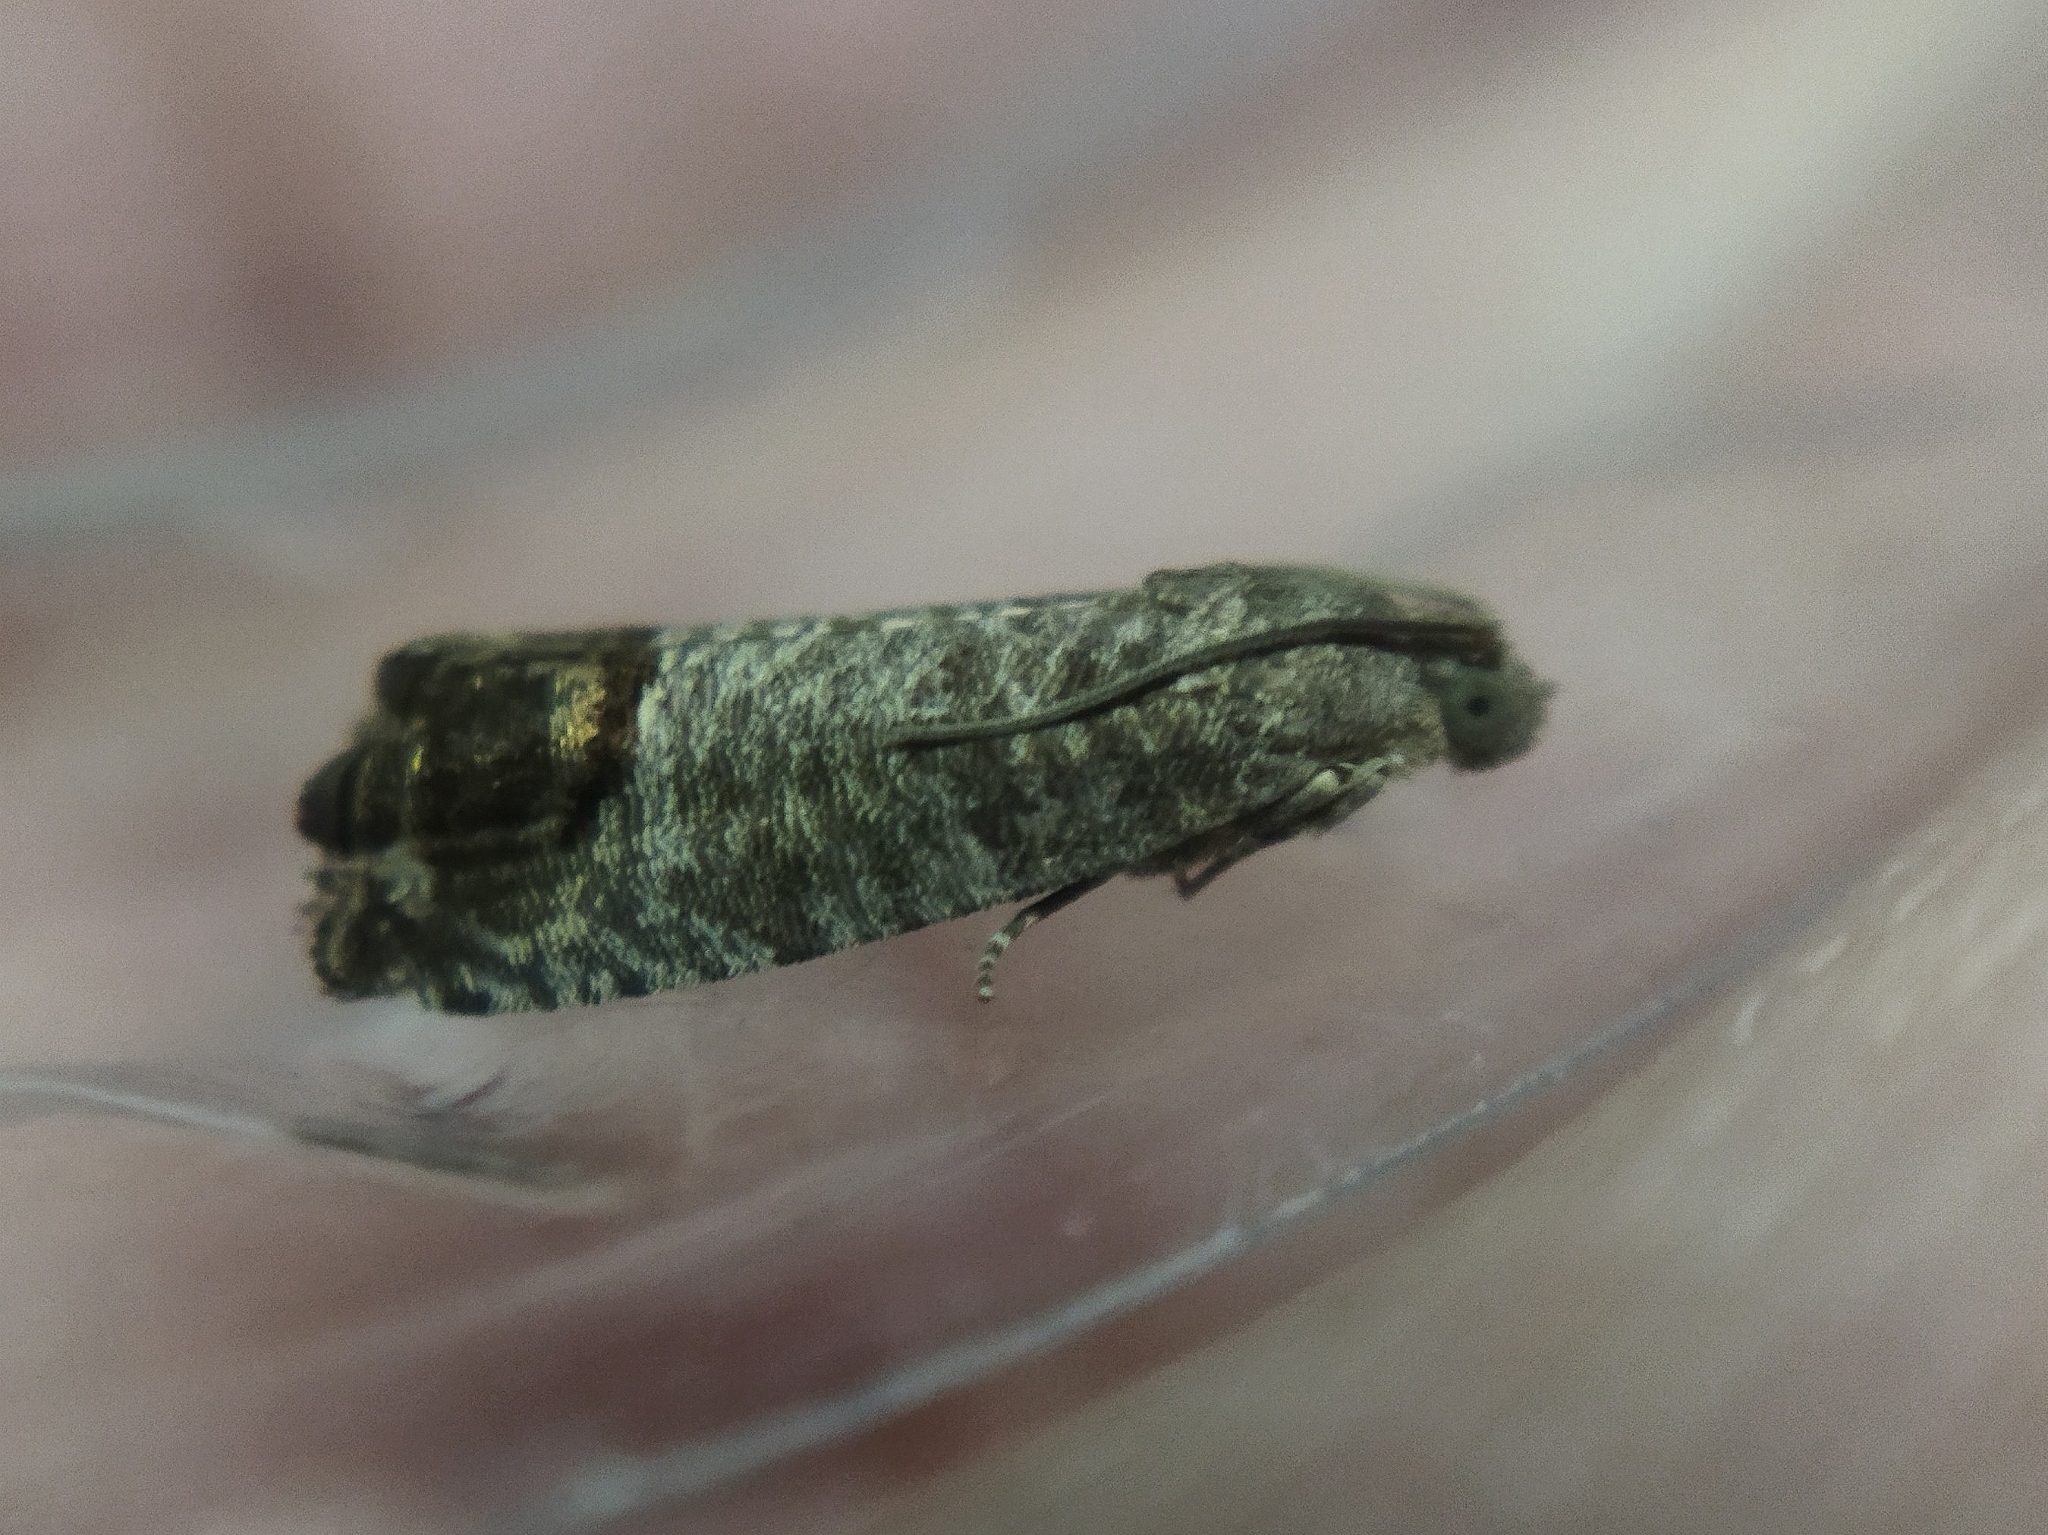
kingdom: Animalia
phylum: Arthropoda
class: Insecta
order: Lepidoptera
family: Tortricidae
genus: Cydia
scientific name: Cydia pomonella
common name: Codling moth
